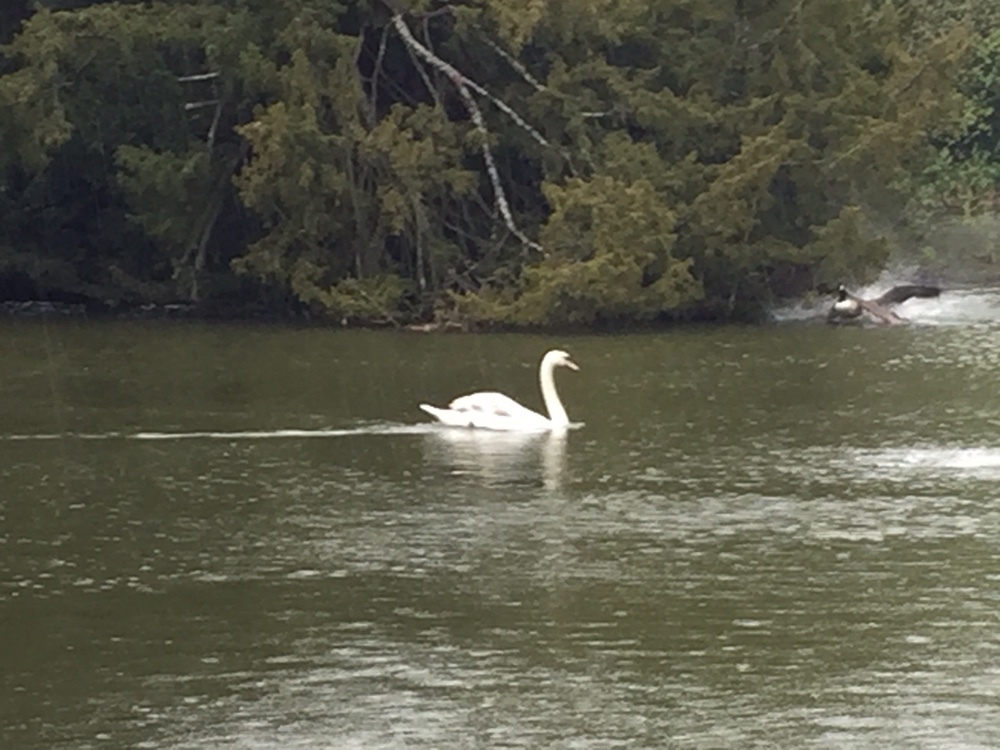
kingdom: Animalia
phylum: Chordata
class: Aves
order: Anseriformes
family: Anatidae
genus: Cygnus
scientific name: Cygnus olor
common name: Mute swan
